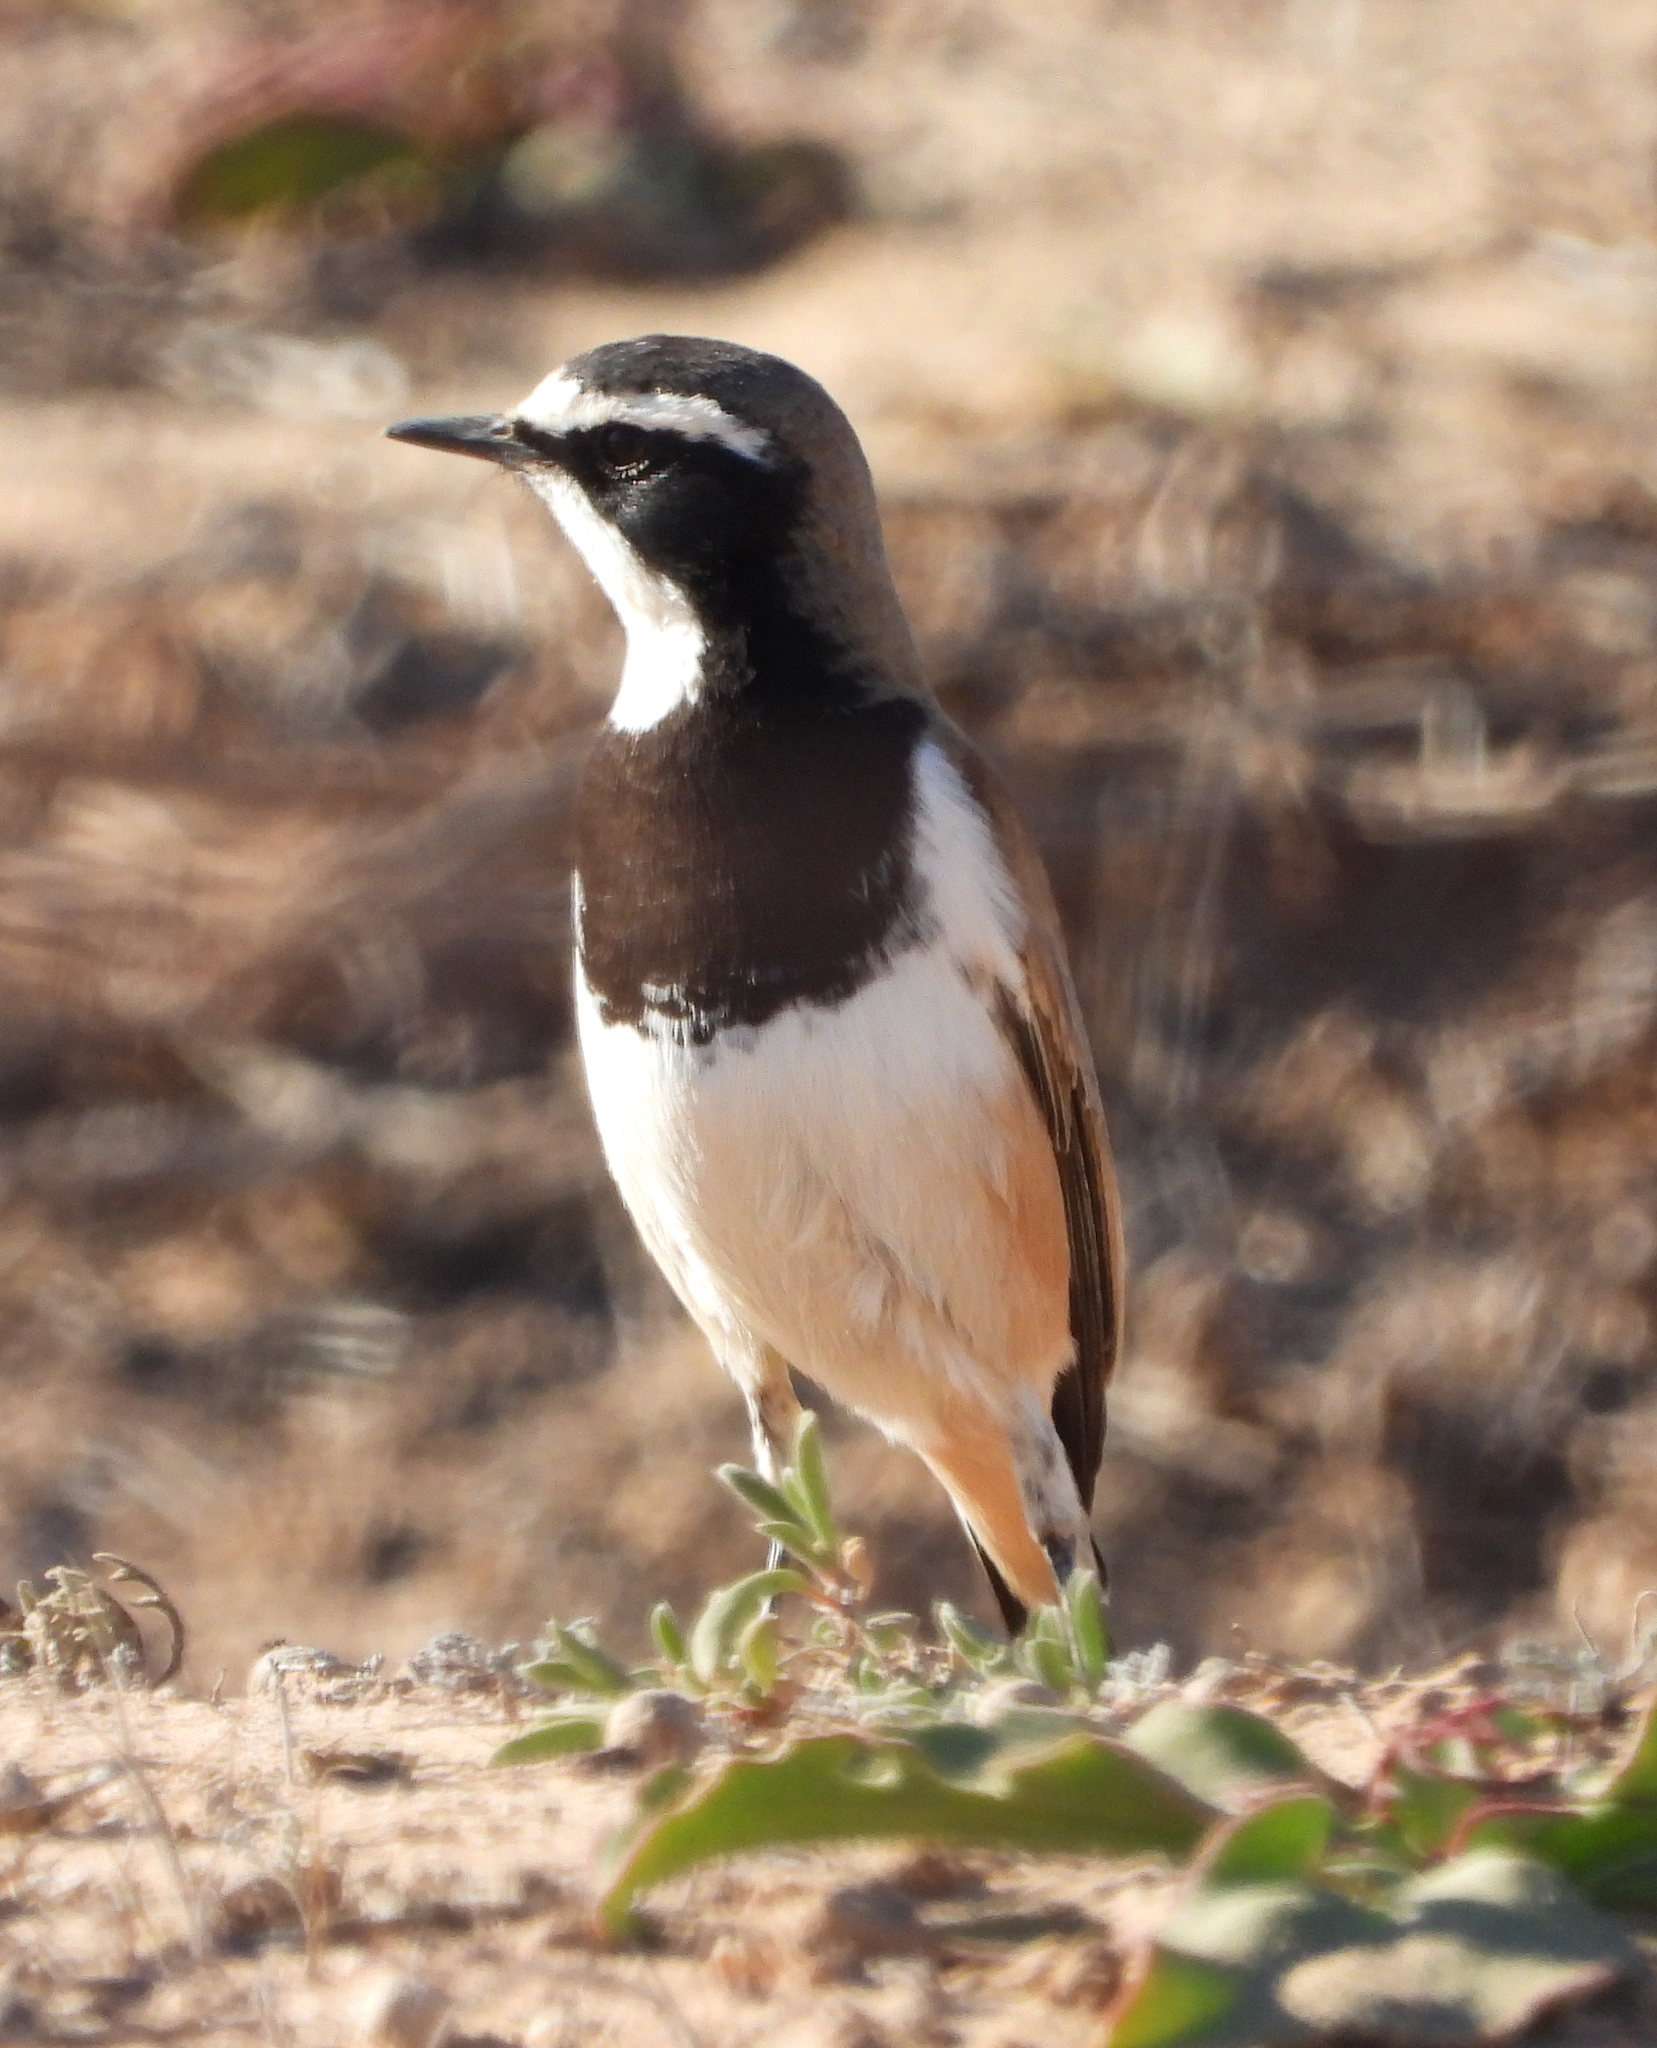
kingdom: Animalia
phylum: Chordata
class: Aves
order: Passeriformes
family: Muscicapidae
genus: Oenanthe
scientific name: Oenanthe pileata
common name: Capped wheatear
